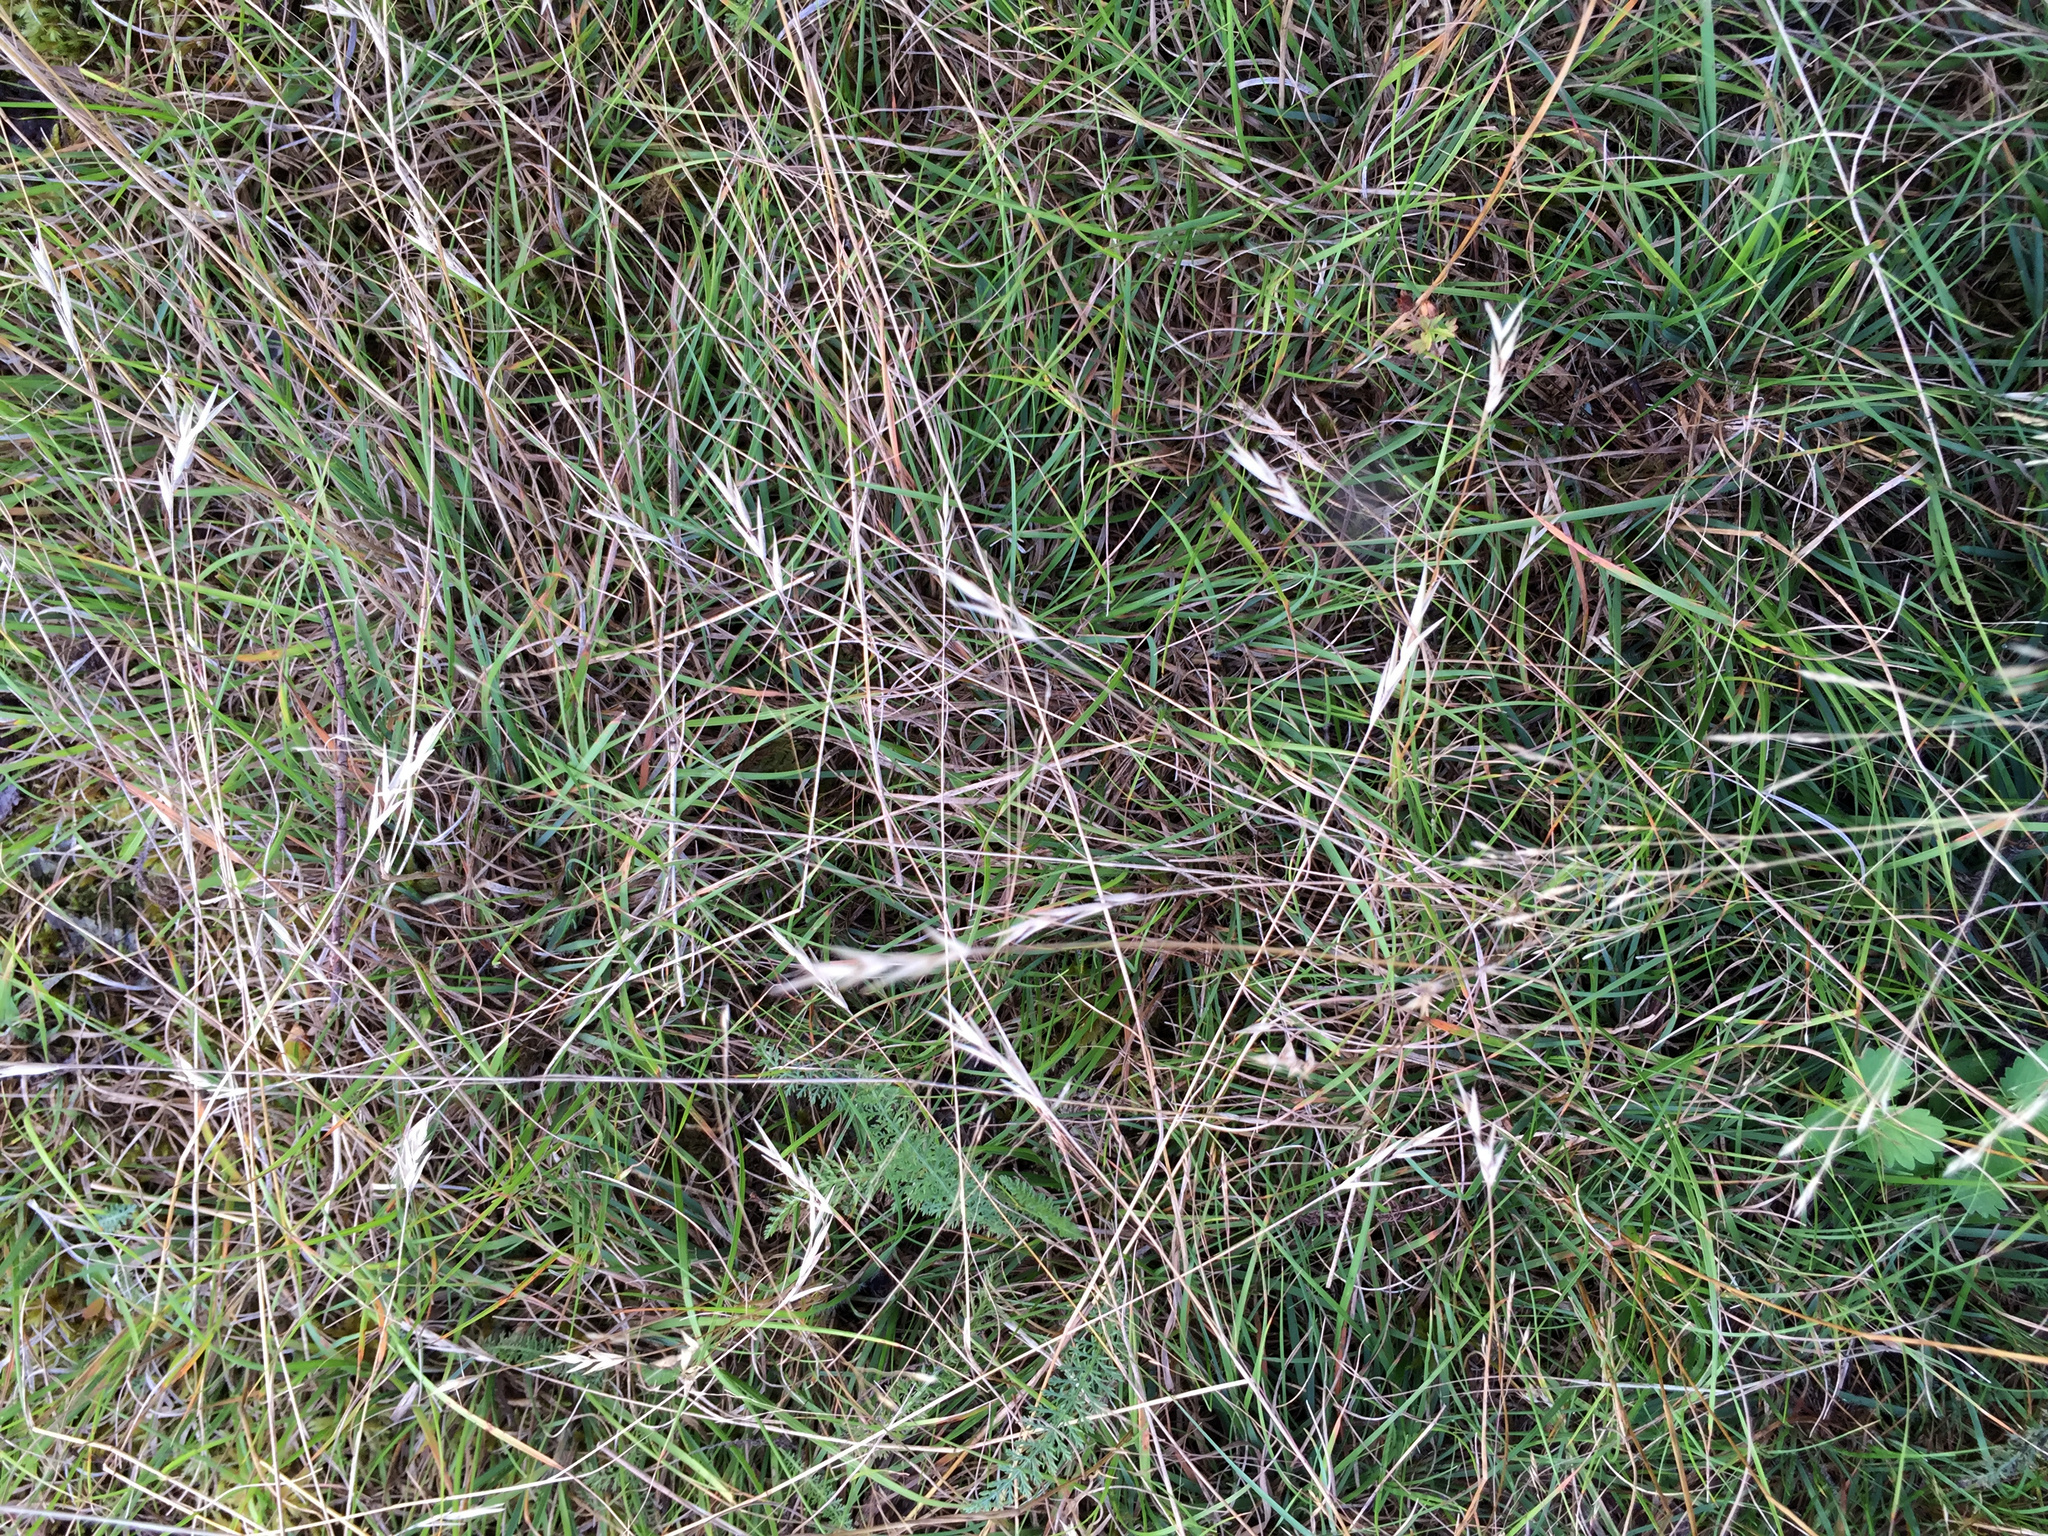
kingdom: Plantae
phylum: Tracheophyta
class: Liliopsida
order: Poales
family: Poaceae
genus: Danthonia
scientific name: Danthonia spicata
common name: Common wild oatgrass
